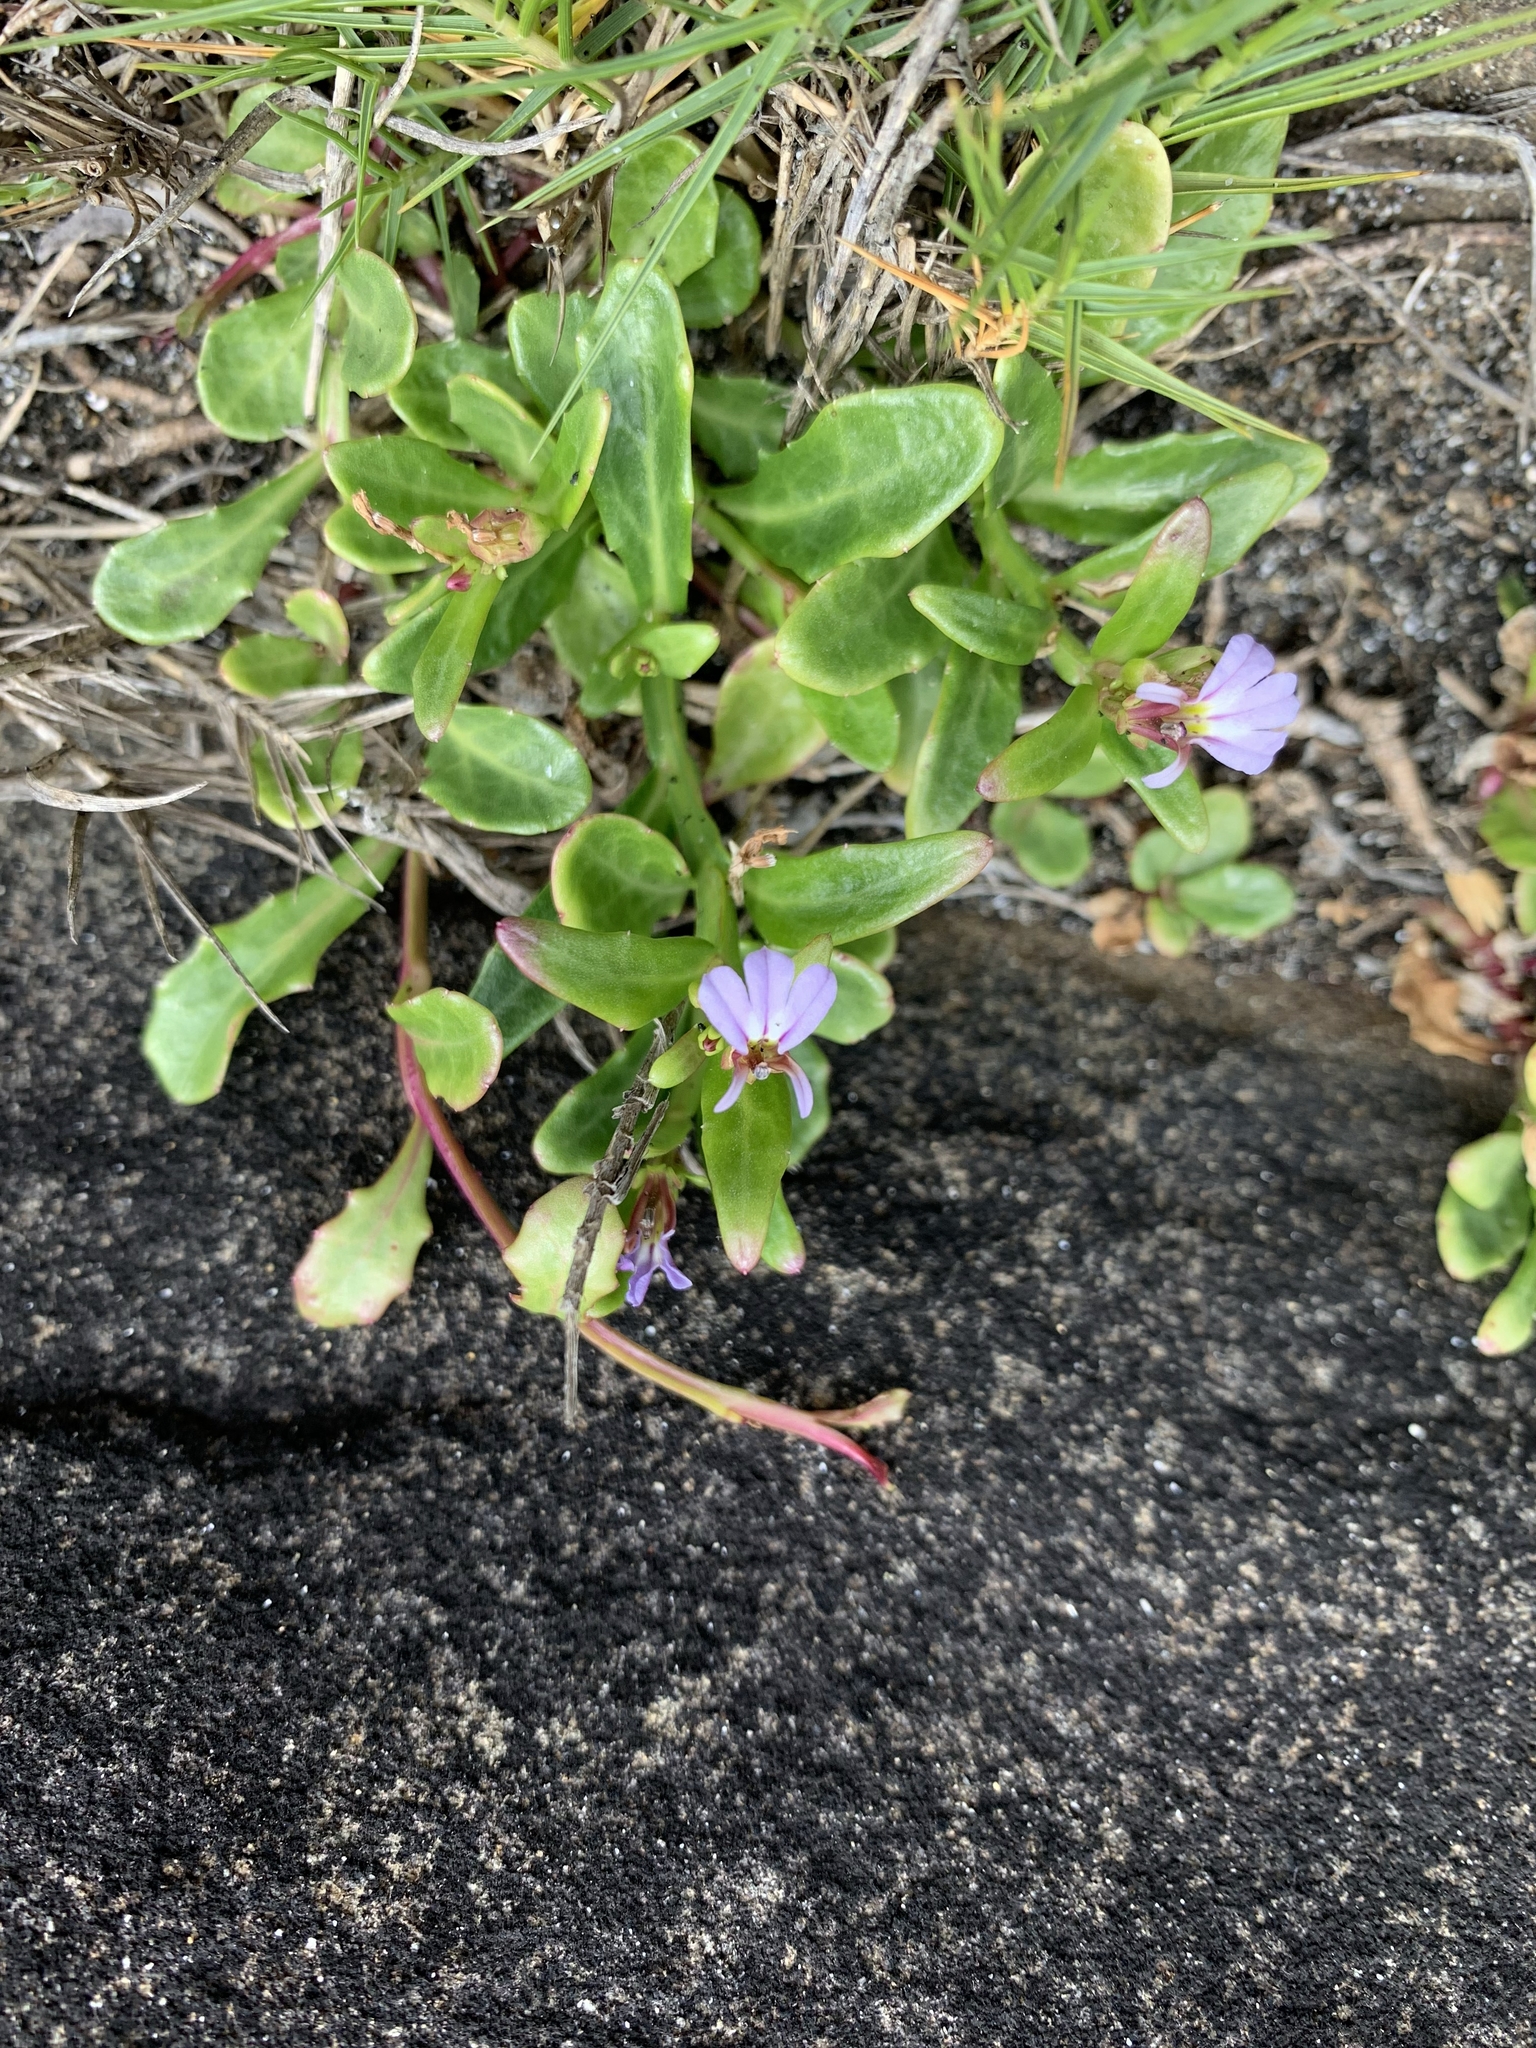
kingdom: Plantae
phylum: Tracheophyta
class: Magnoliopsida
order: Asterales
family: Campanulaceae
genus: Lobelia
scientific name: Lobelia anceps
